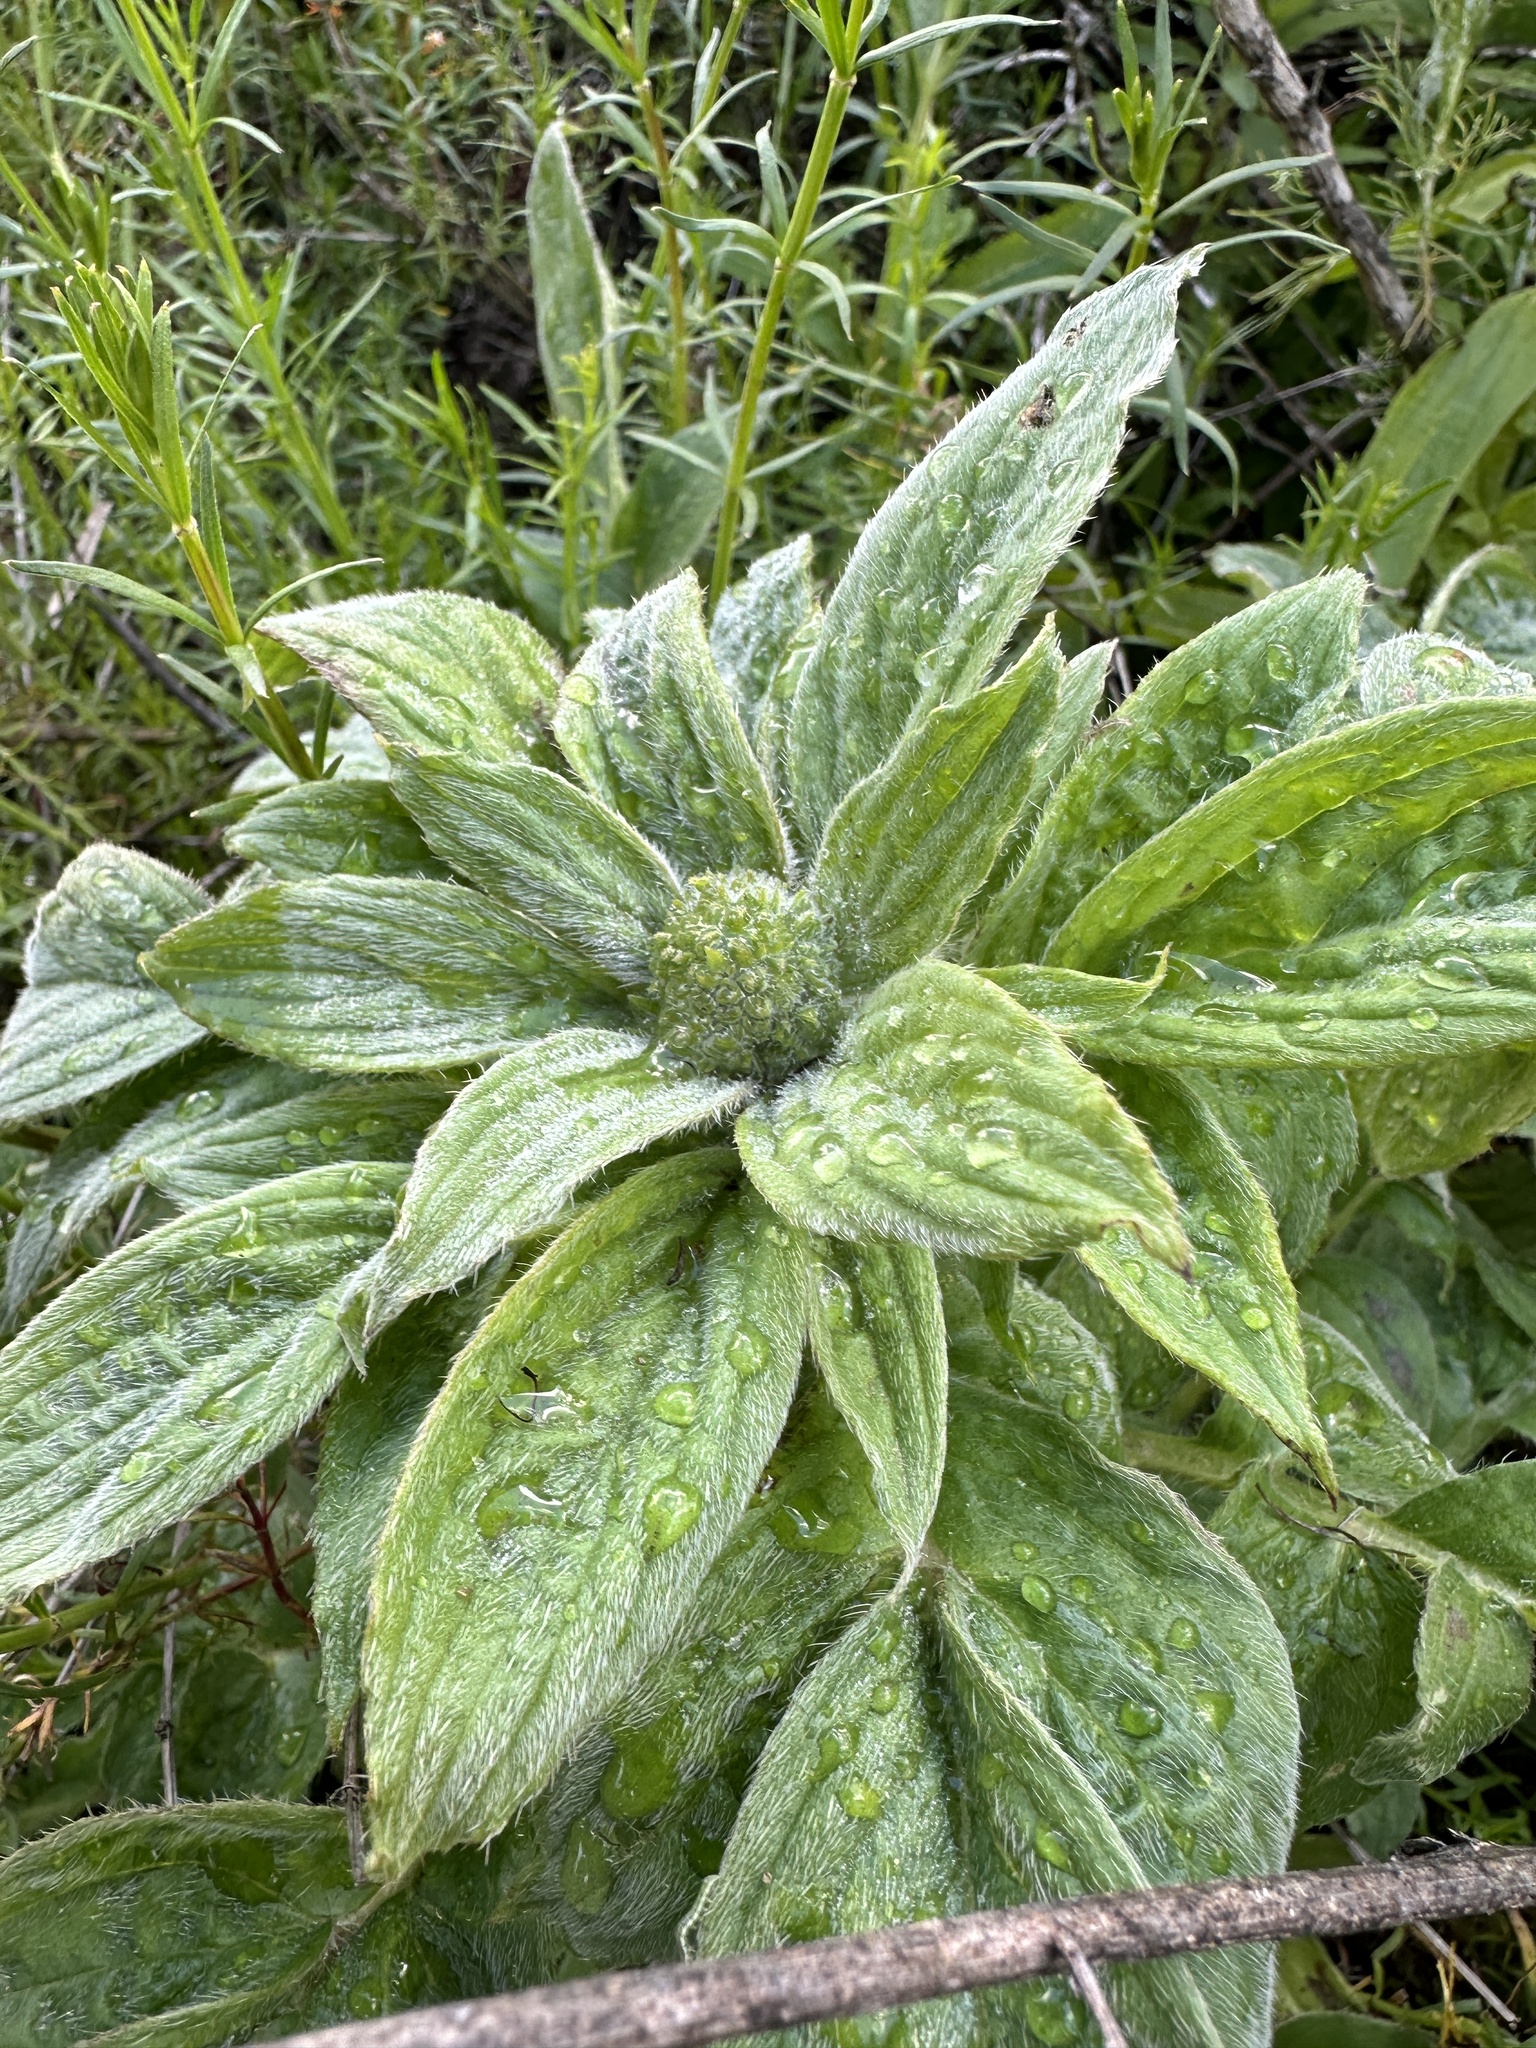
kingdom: Plantae
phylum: Tracheophyta
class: Magnoliopsida
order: Boraginales
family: Hydrophyllaceae
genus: Phacelia
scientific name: Phacelia imbricata
